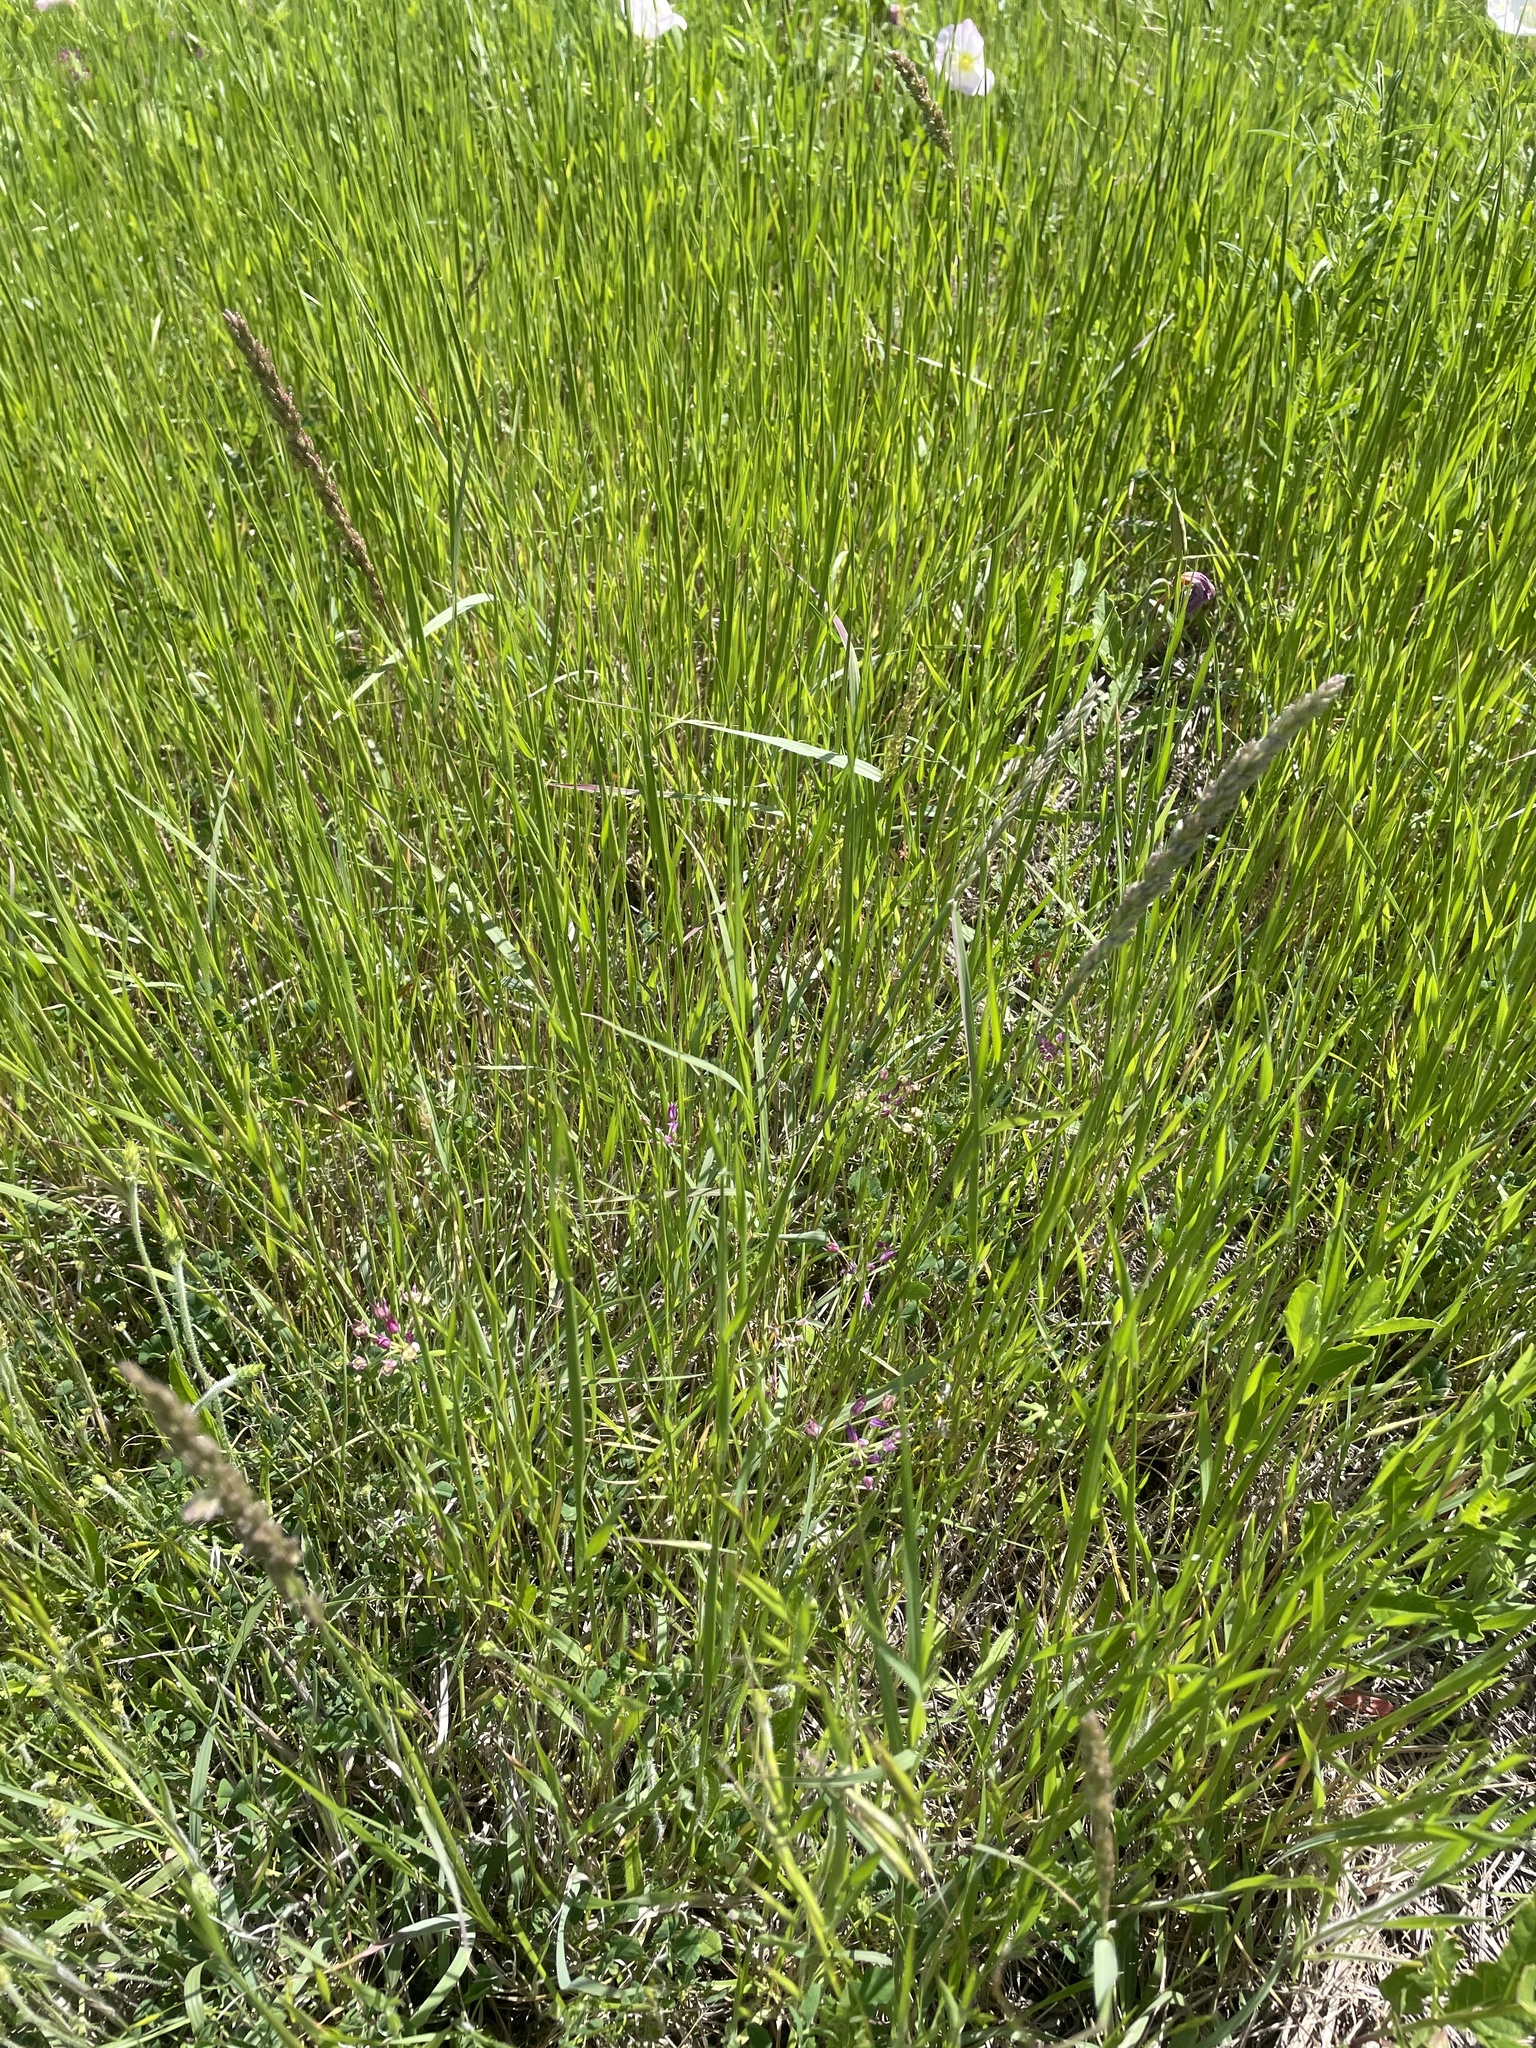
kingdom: Plantae
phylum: Tracheophyta
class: Liliopsida
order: Poales
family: Poaceae
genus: Tridens
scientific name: Tridens albescens
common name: White tridens
